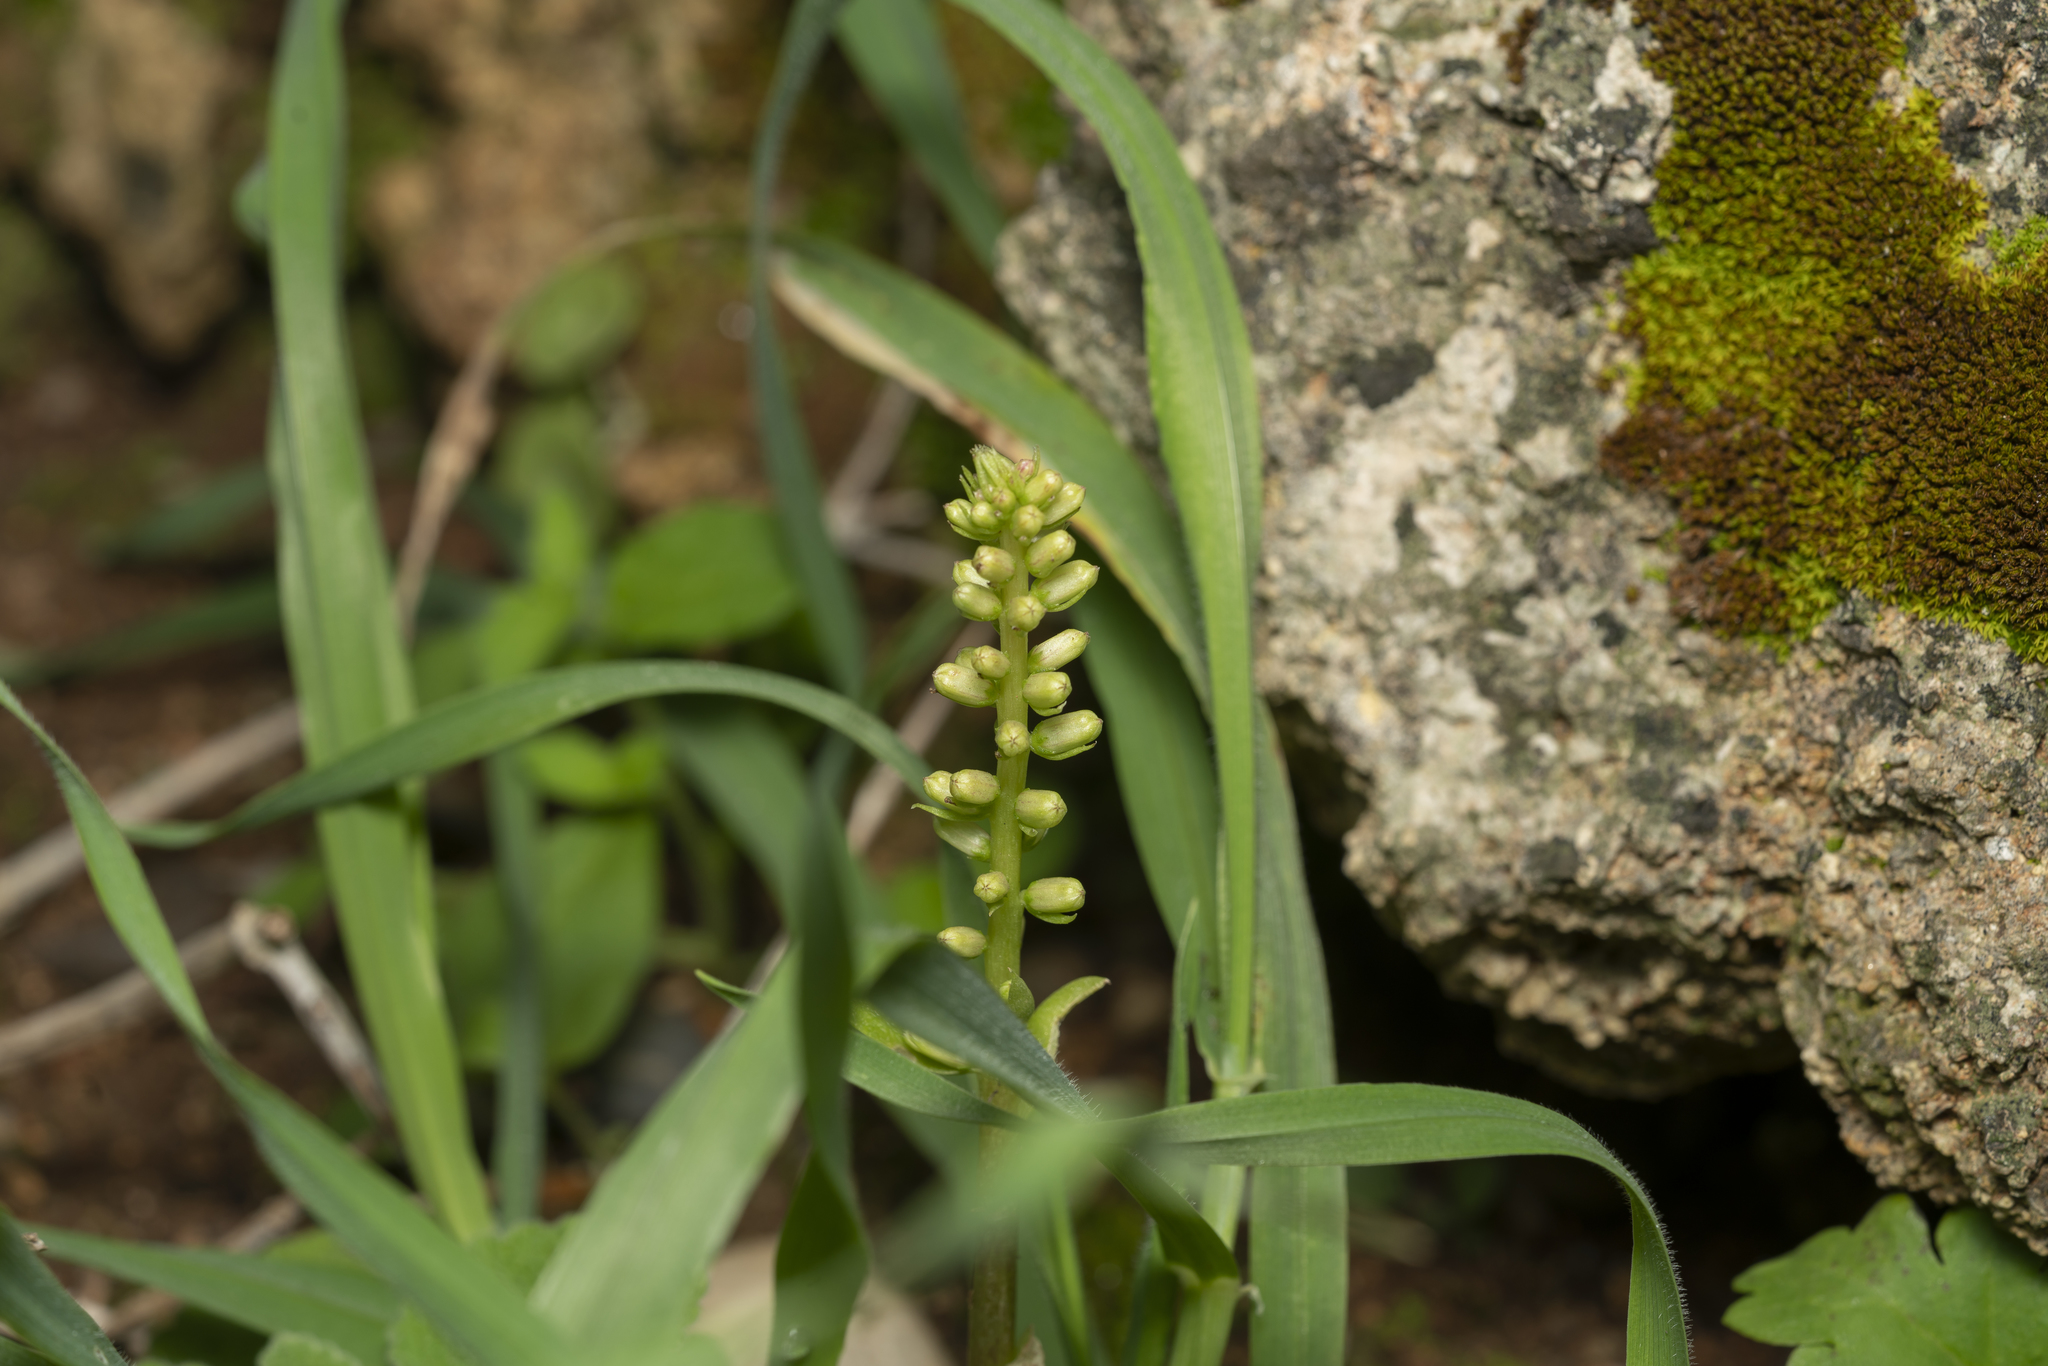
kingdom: Plantae
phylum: Tracheophyta
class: Magnoliopsida
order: Saxifragales
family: Crassulaceae
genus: Umbilicus
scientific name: Umbilicus horizontalis
